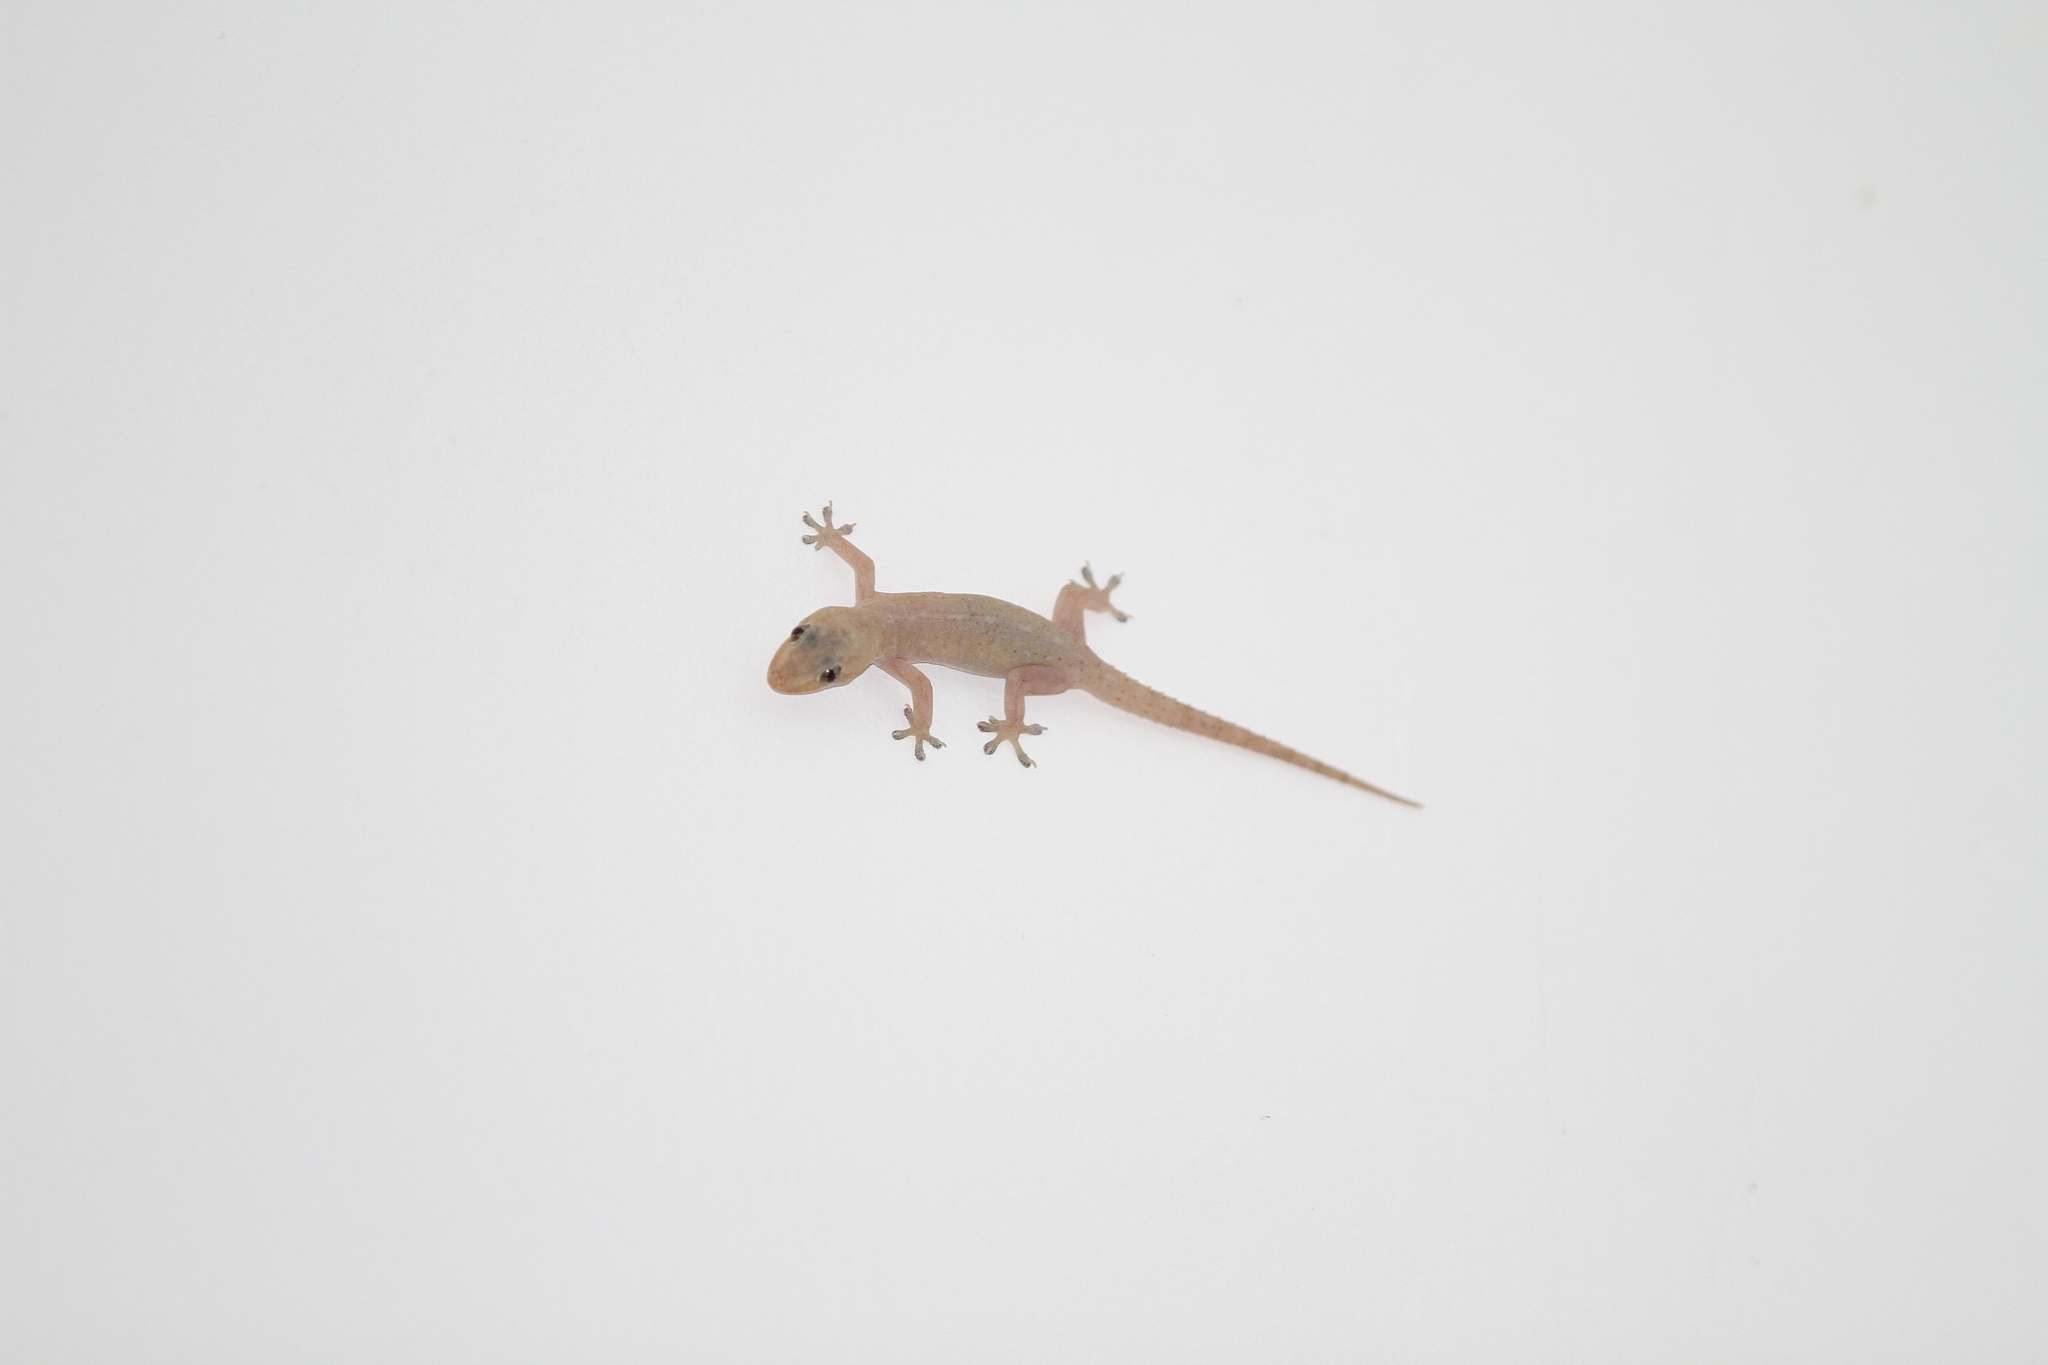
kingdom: Animalia
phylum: Chordata
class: Squamata
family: Gekkonidae
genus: Hemidactylus
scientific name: Hemidactylus frenatus
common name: Common house gecko
